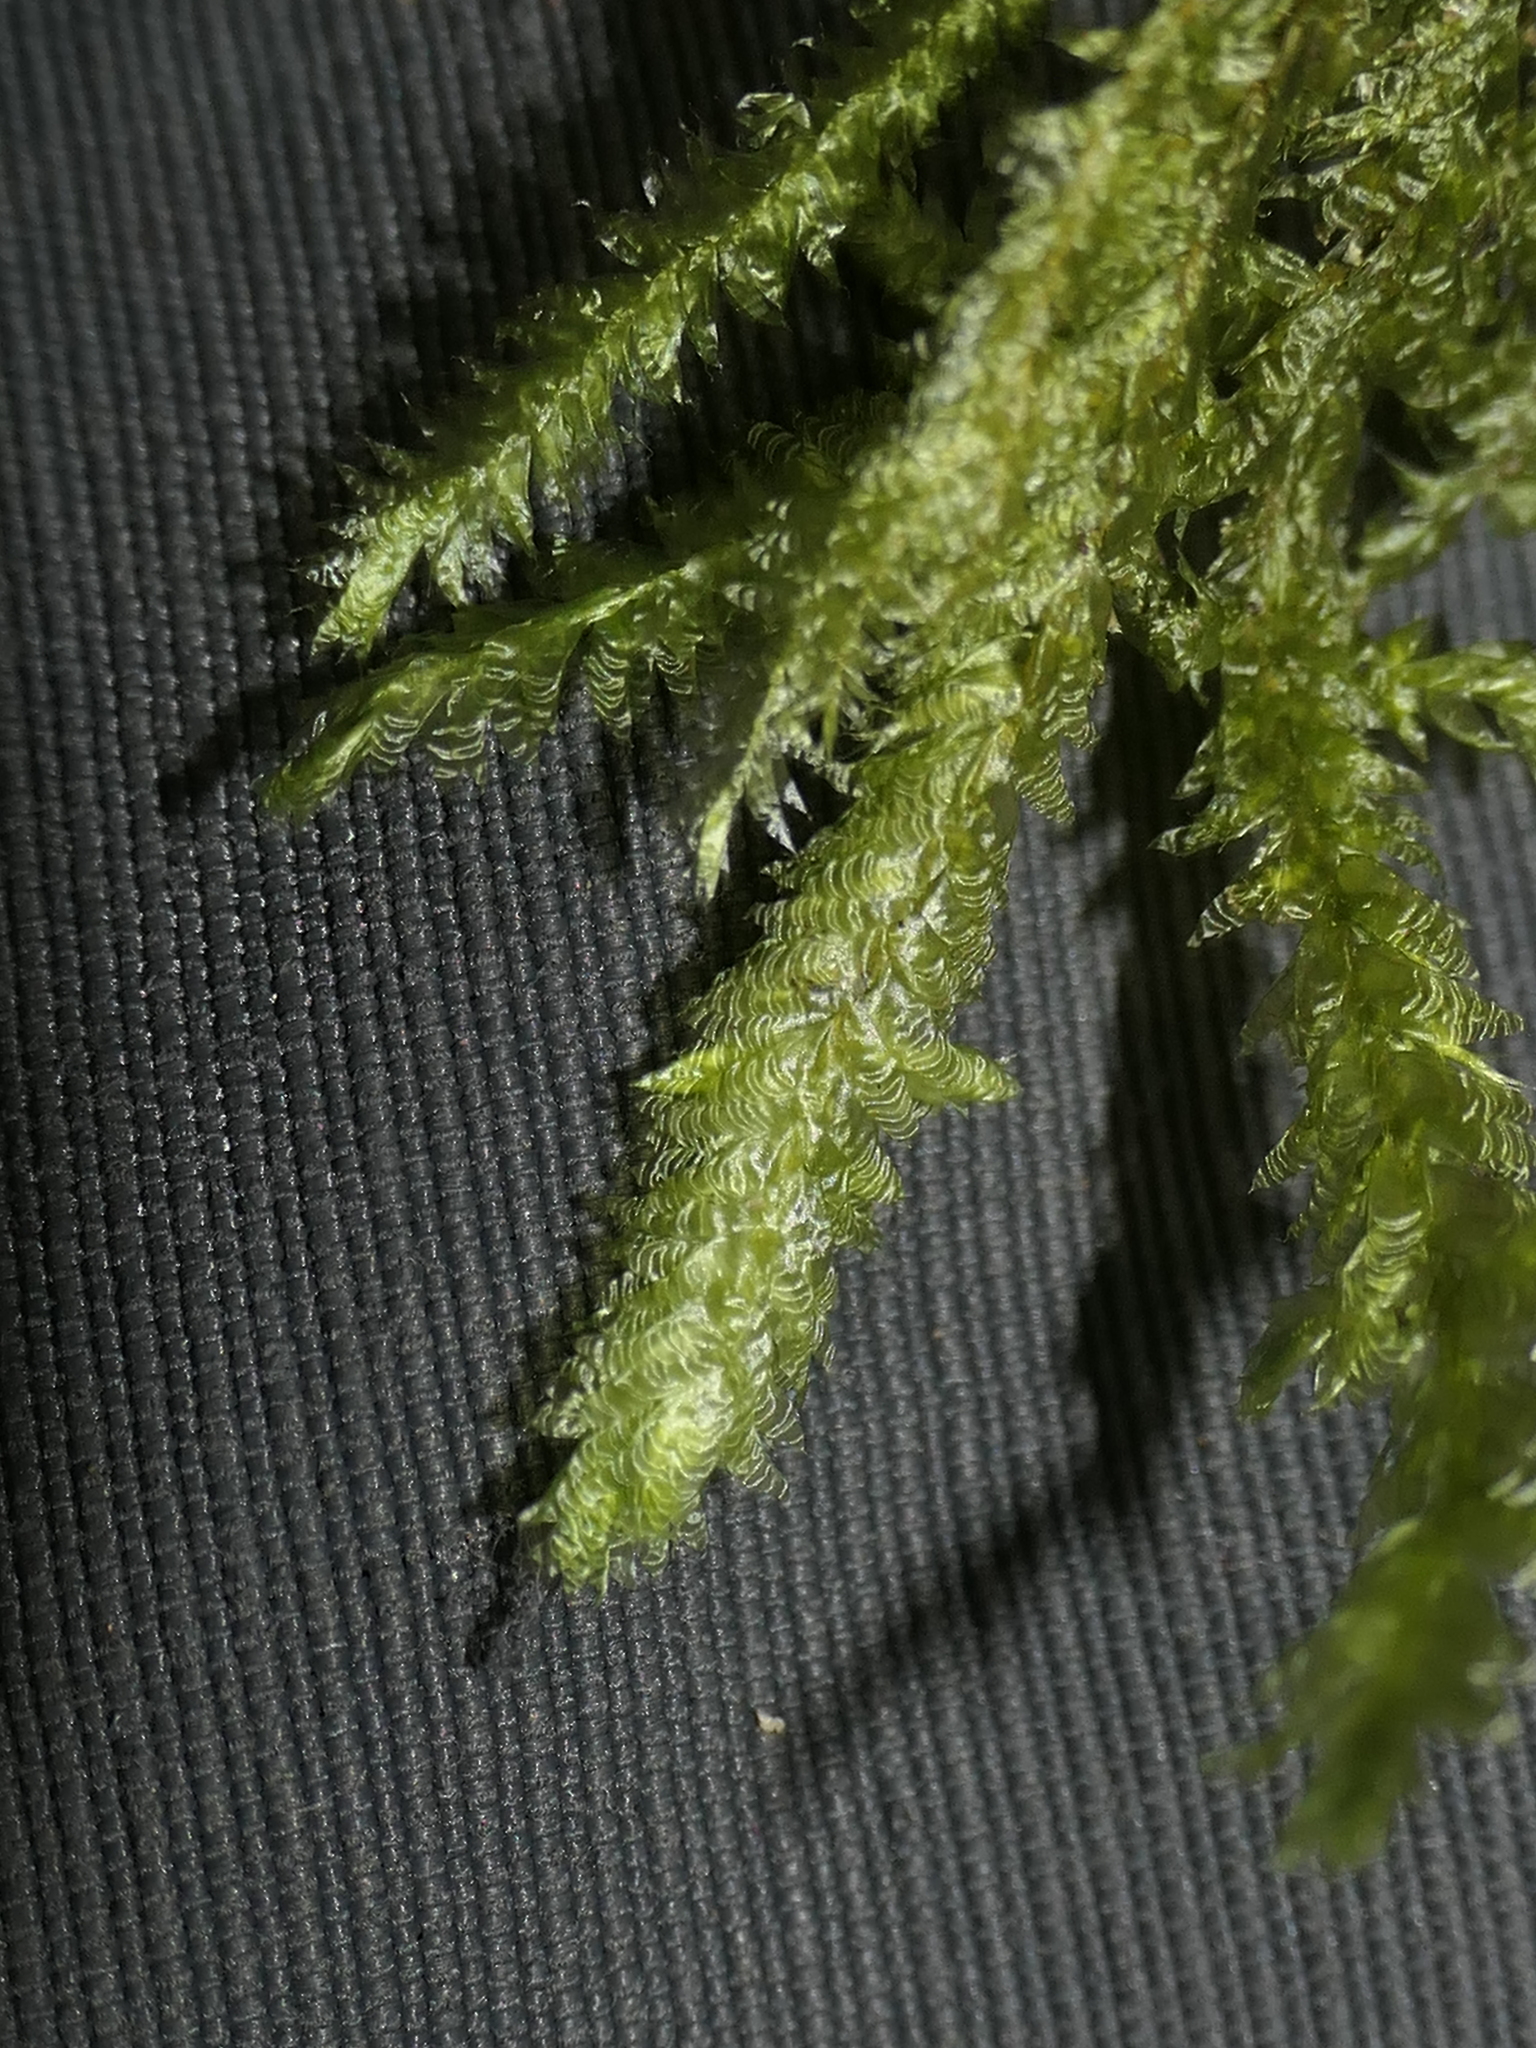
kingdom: Plantae
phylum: Bryophyta
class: Bryopsida
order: Hypnales
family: Neckeraceae
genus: Alleniella
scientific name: Alleniella hymenodonta
